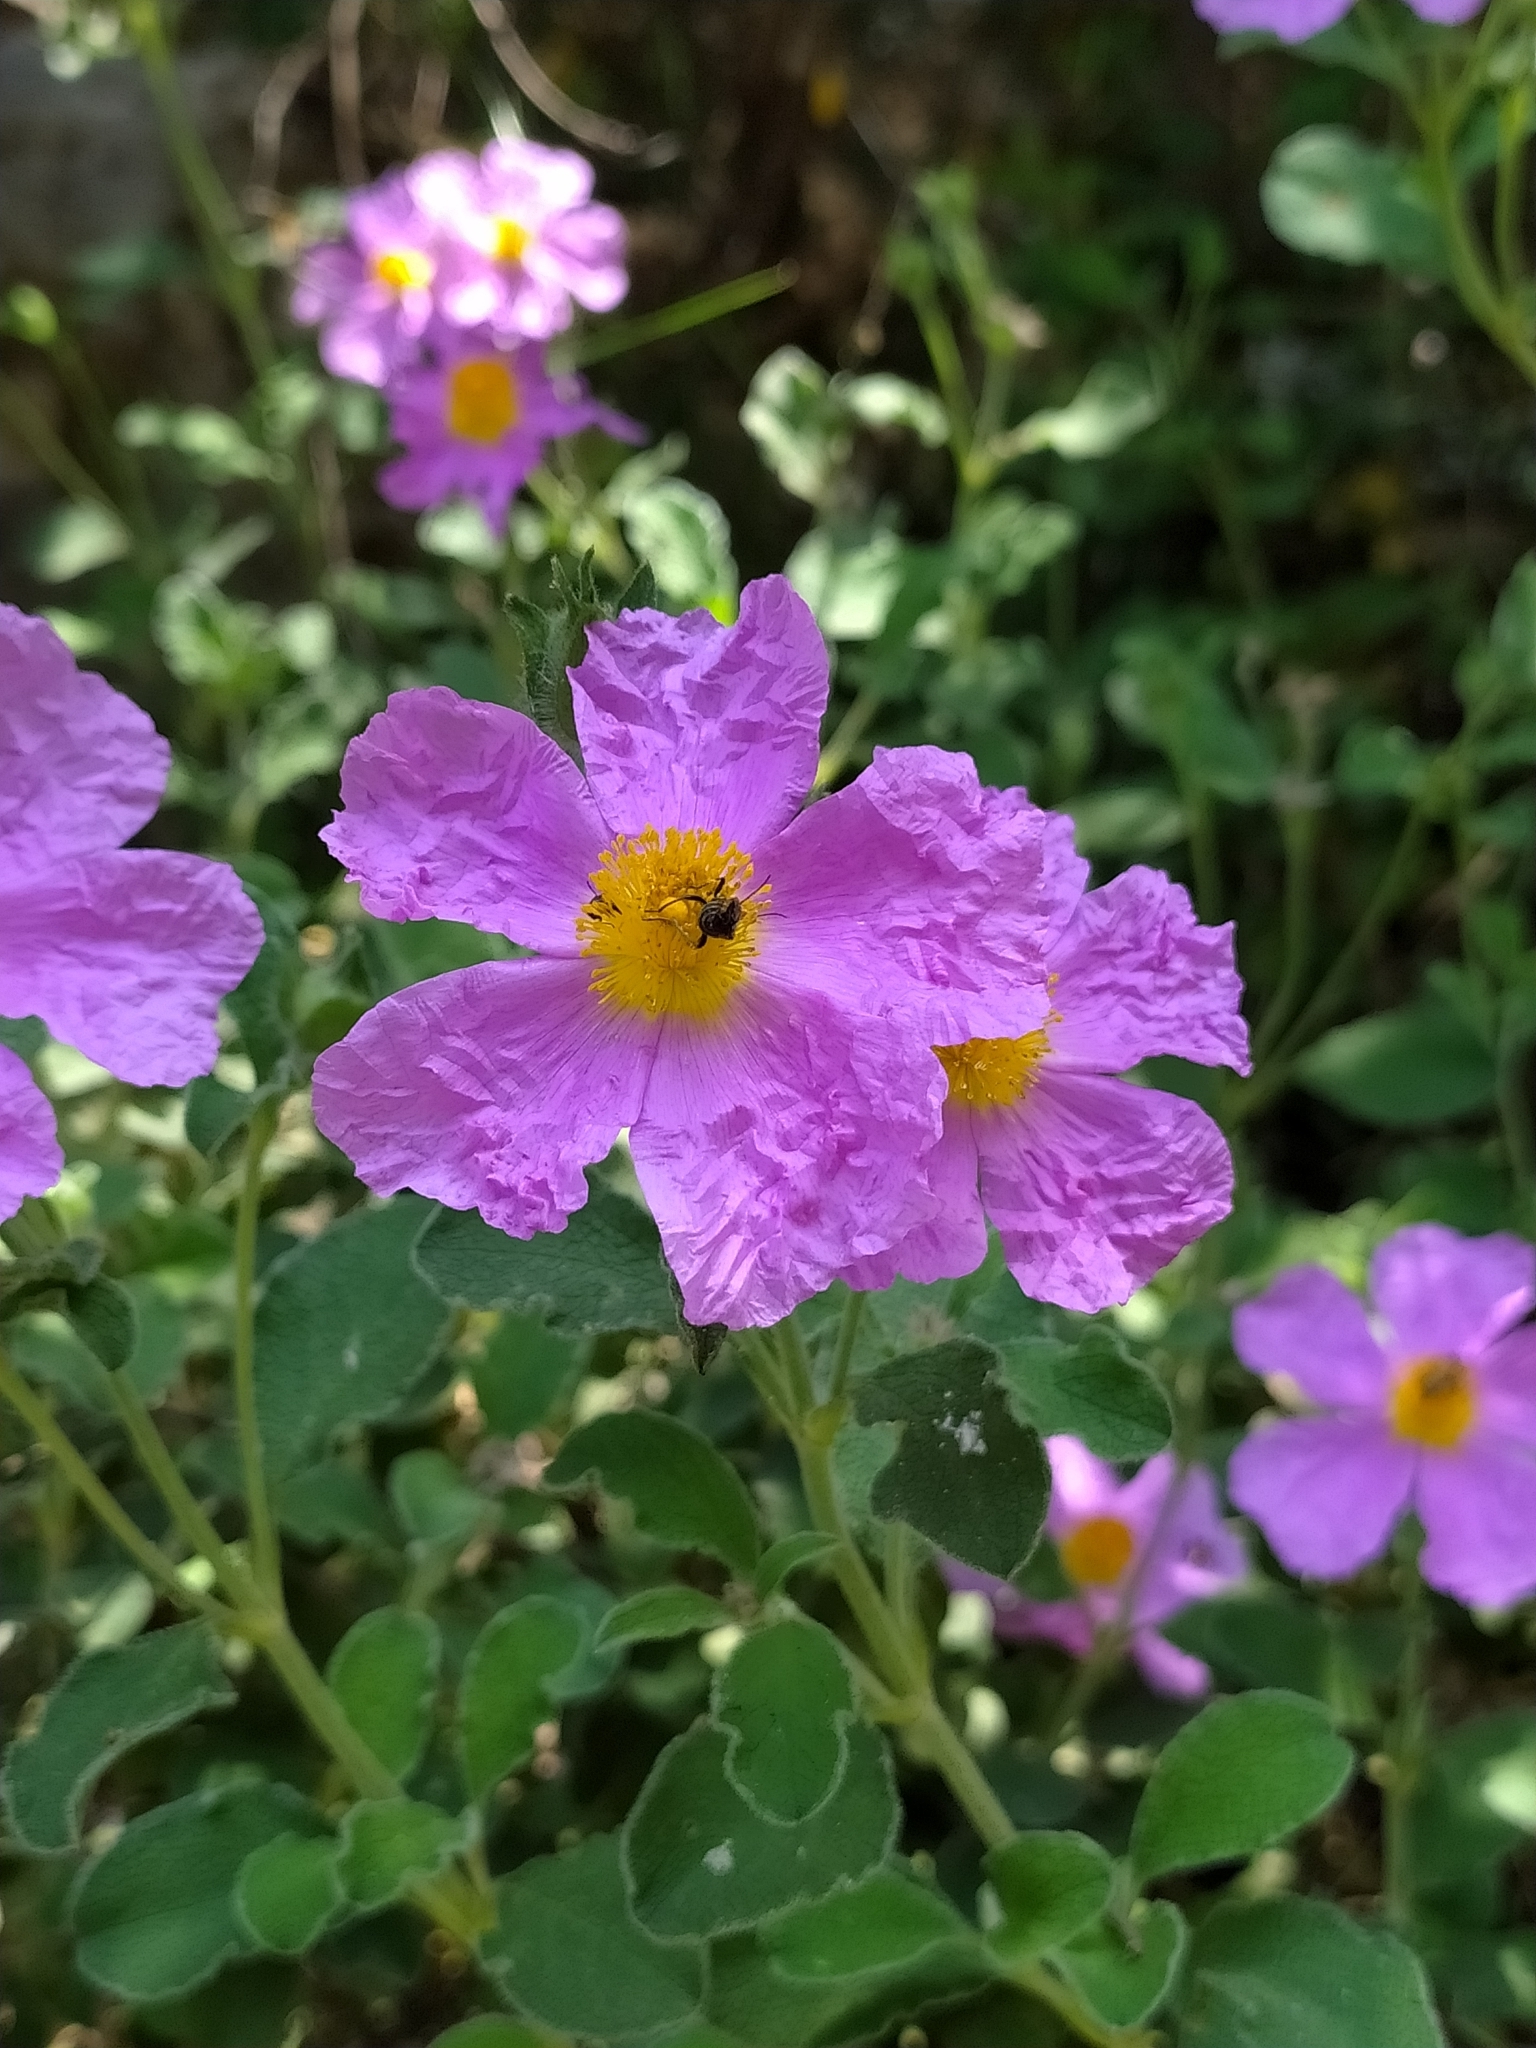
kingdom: Plantae
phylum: Tracheophyta
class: Magnoliopsida
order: Malvales
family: Cistaceae
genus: Cistus
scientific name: Cistus creticus
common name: Cretan rockrose
